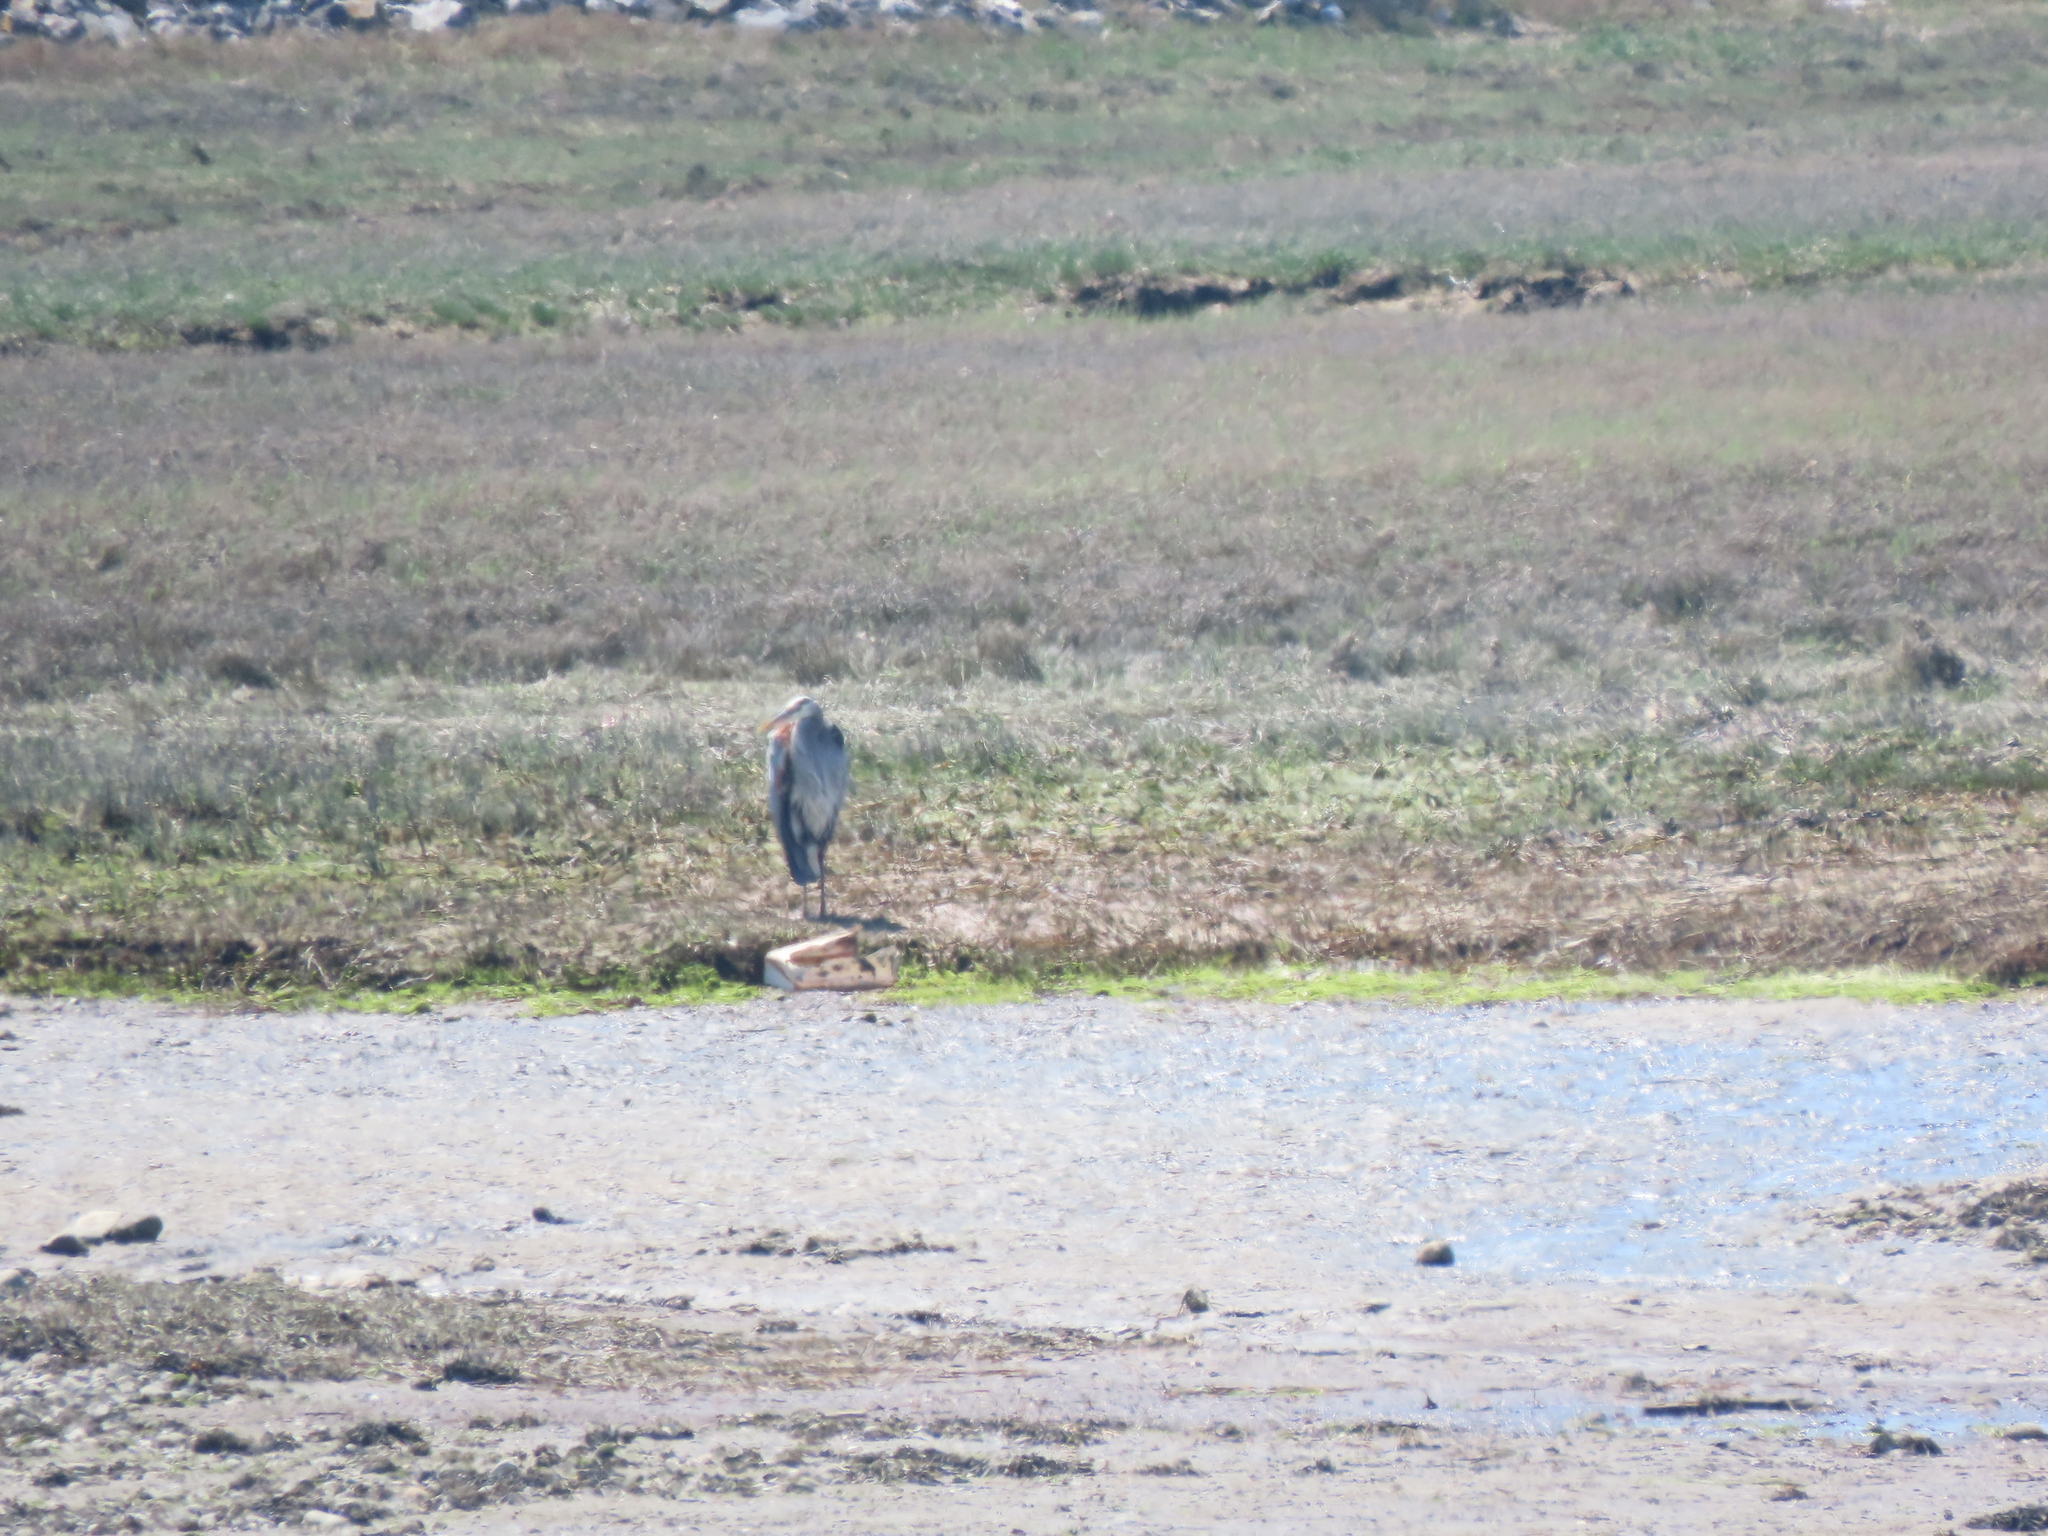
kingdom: Animalia
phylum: Chordata
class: Aves
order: Pelecaniformes
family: Ardeidae
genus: Ardea
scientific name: Ardea herodias
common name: Great blue heron
